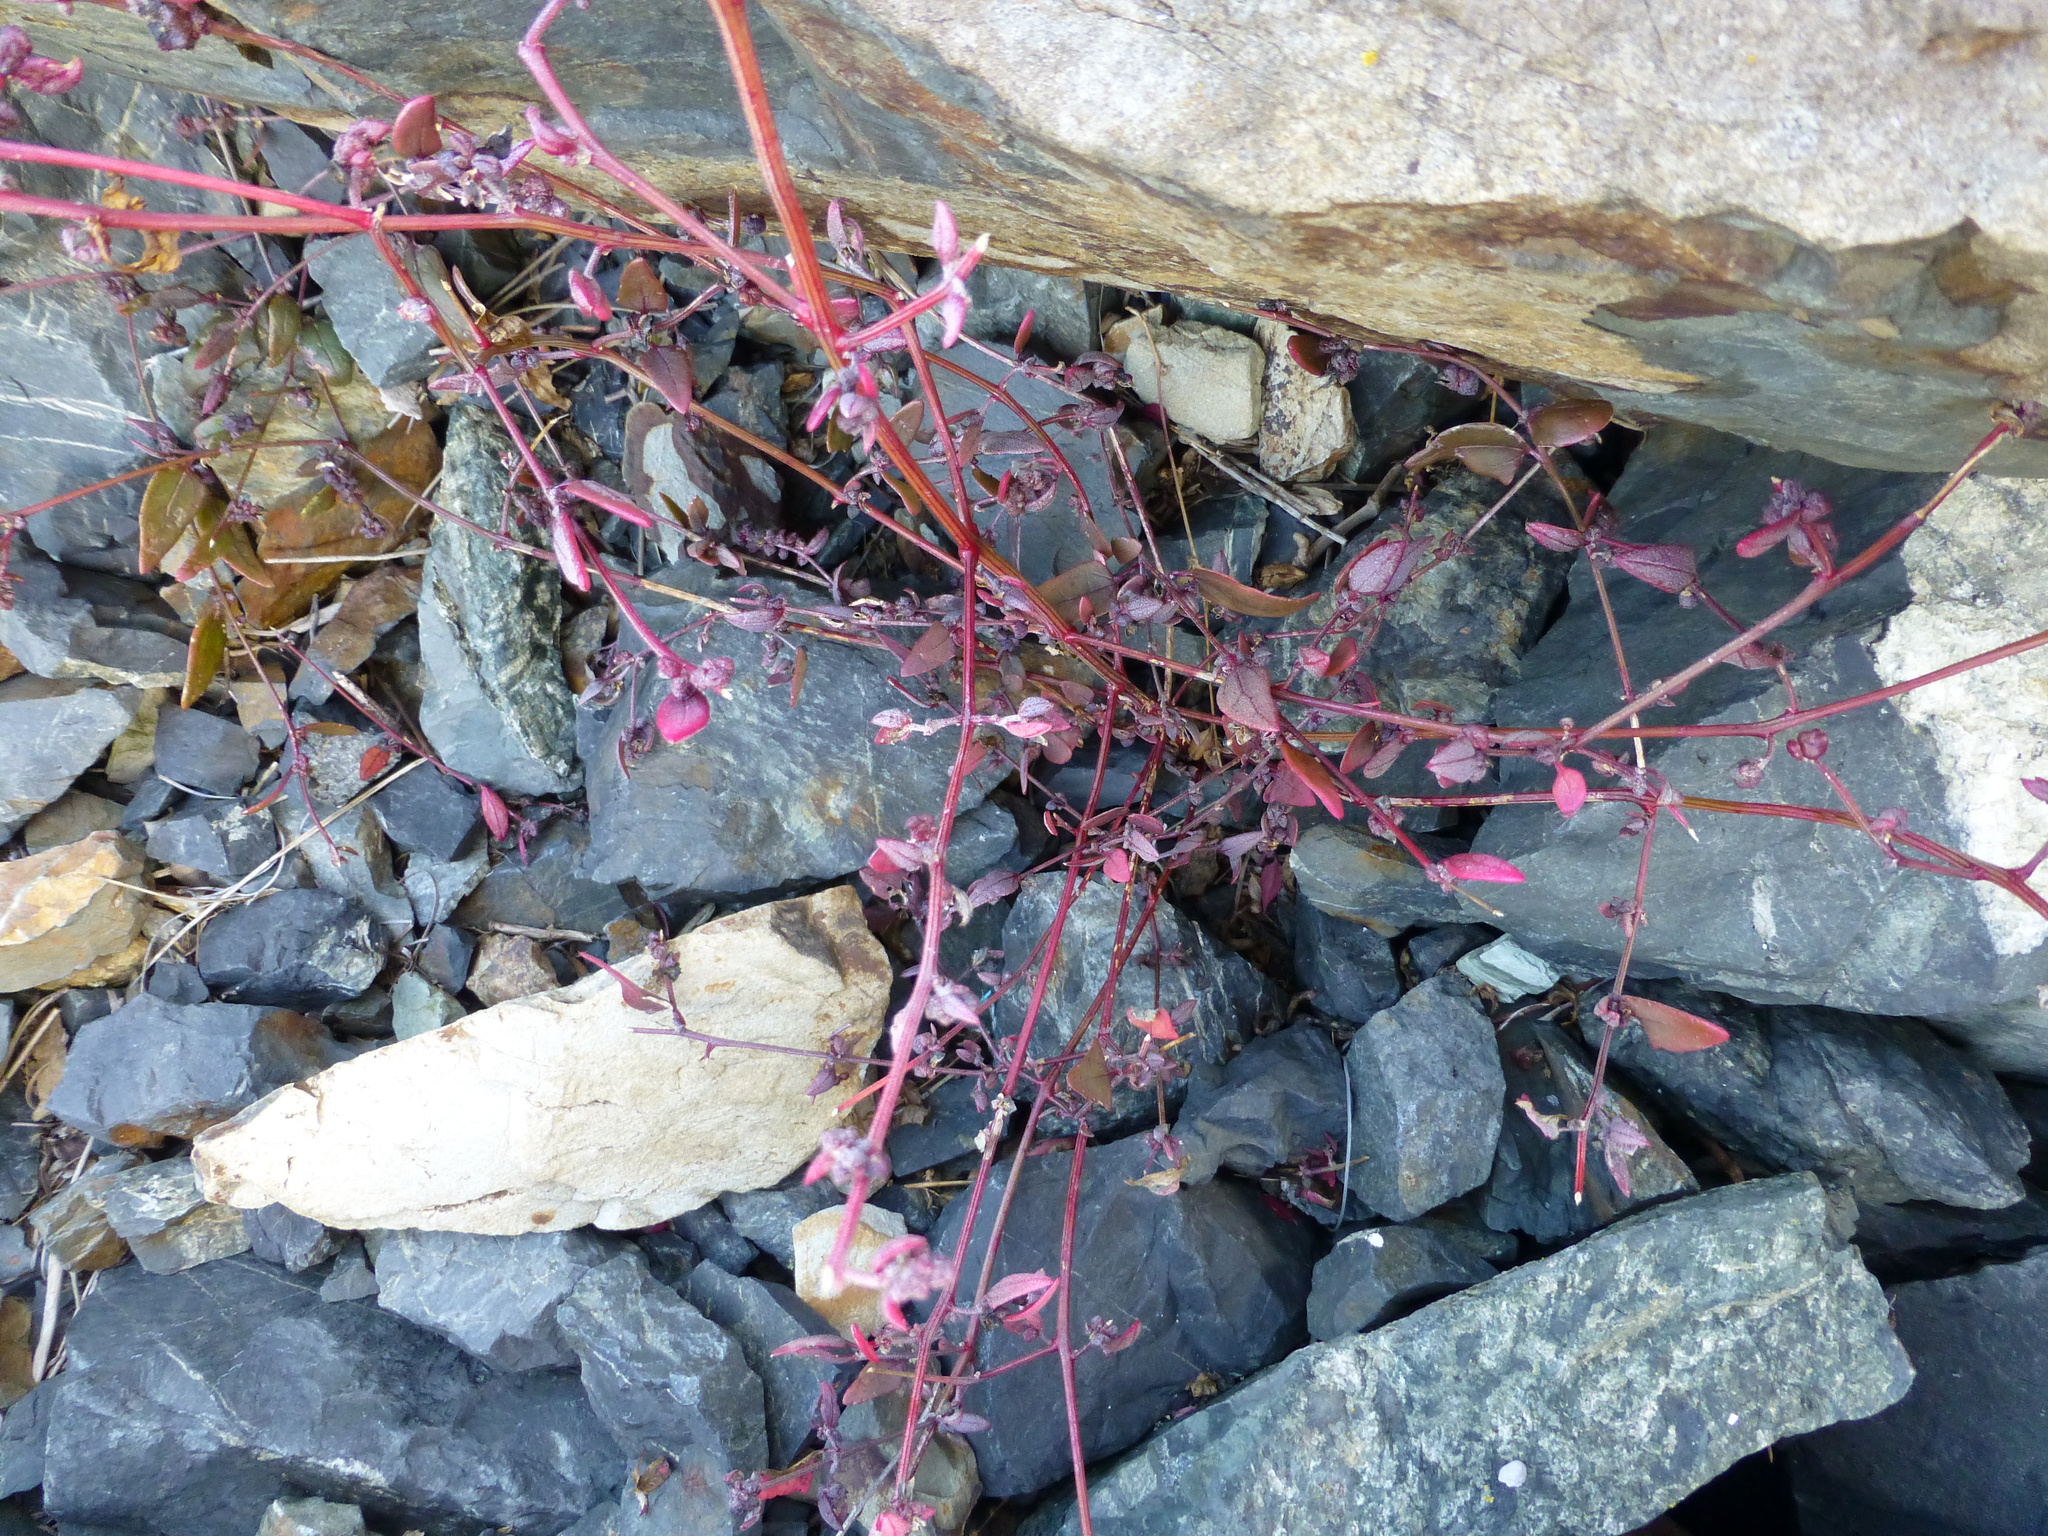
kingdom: Plantae
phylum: Tracheophyta
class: Magnoliopsida
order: Caryophyllales
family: Amaranthaceae
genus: Atriplex
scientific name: Atriplex prostrata
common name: Spear-leaved orache
